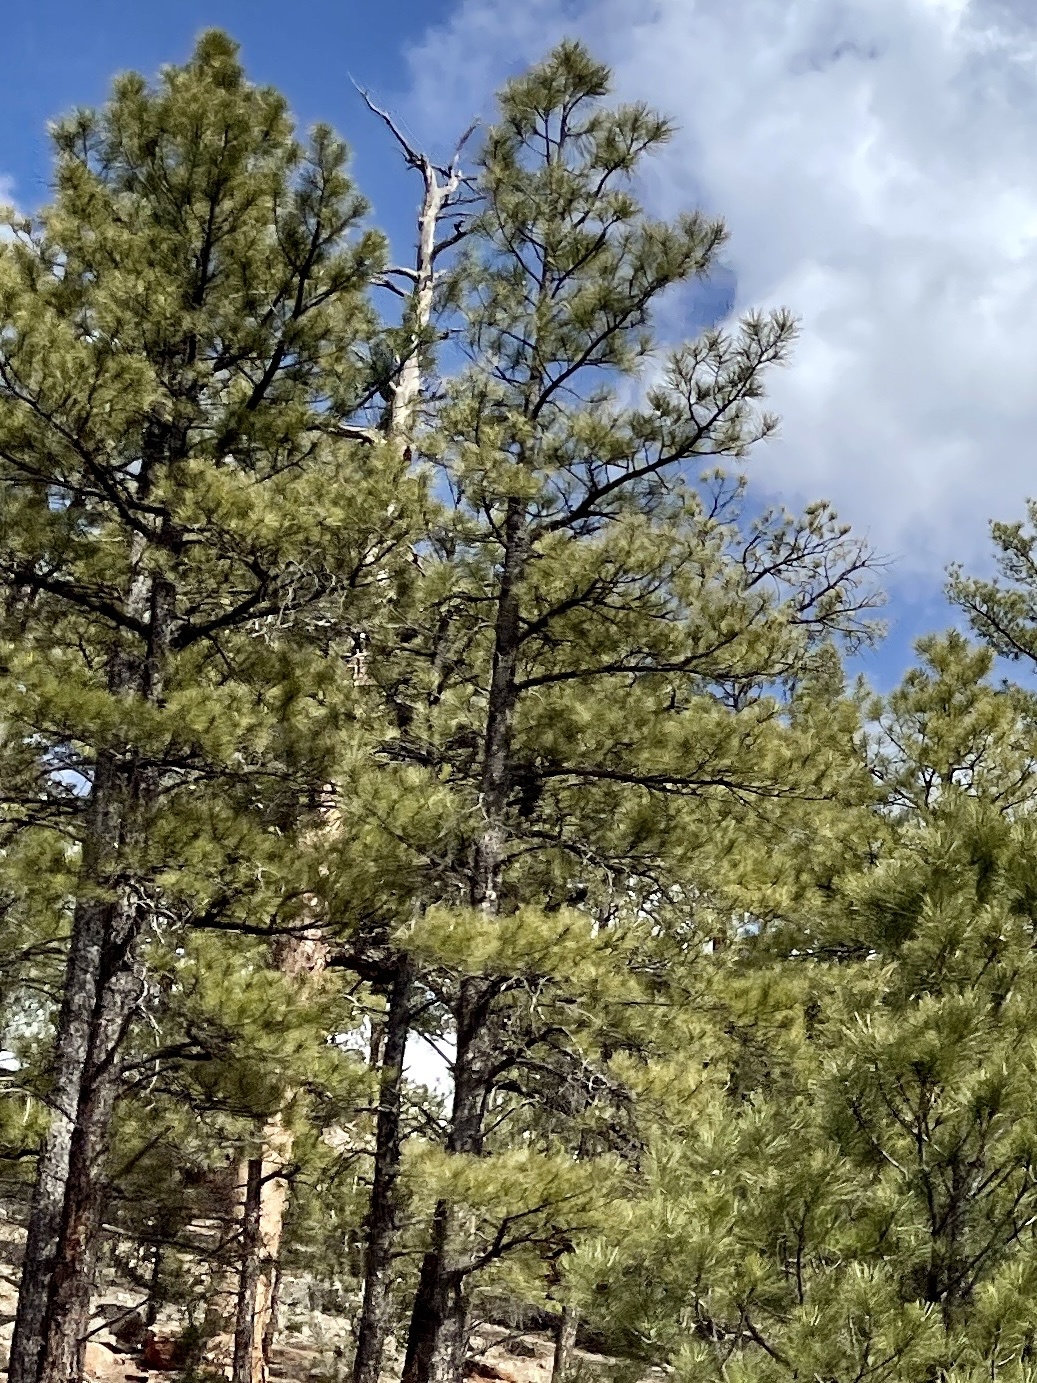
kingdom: Plantae
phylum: Tracheophyta
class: Pinopsida
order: Pinales
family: Pinaceae
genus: Pinus
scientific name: Pinus ponderosa
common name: Western yellow-pine
